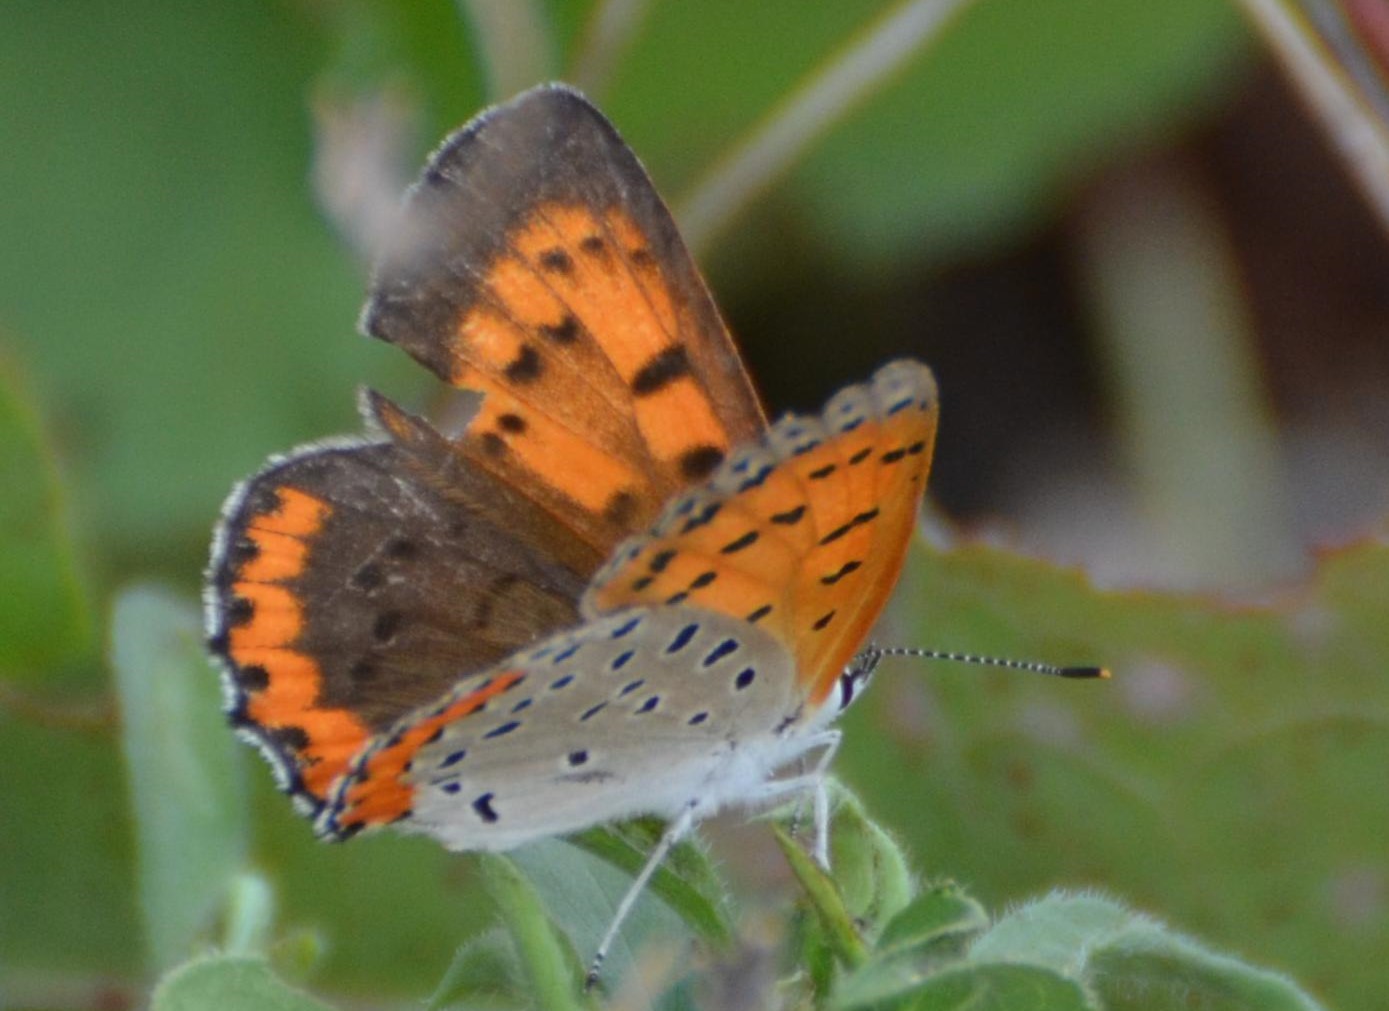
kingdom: Animalia
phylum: Arthropoda
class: Insecta
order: Lepidoptera
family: Lycaenidae
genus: Tharsalea
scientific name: Tharsalea hyllus
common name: Bronze copper
